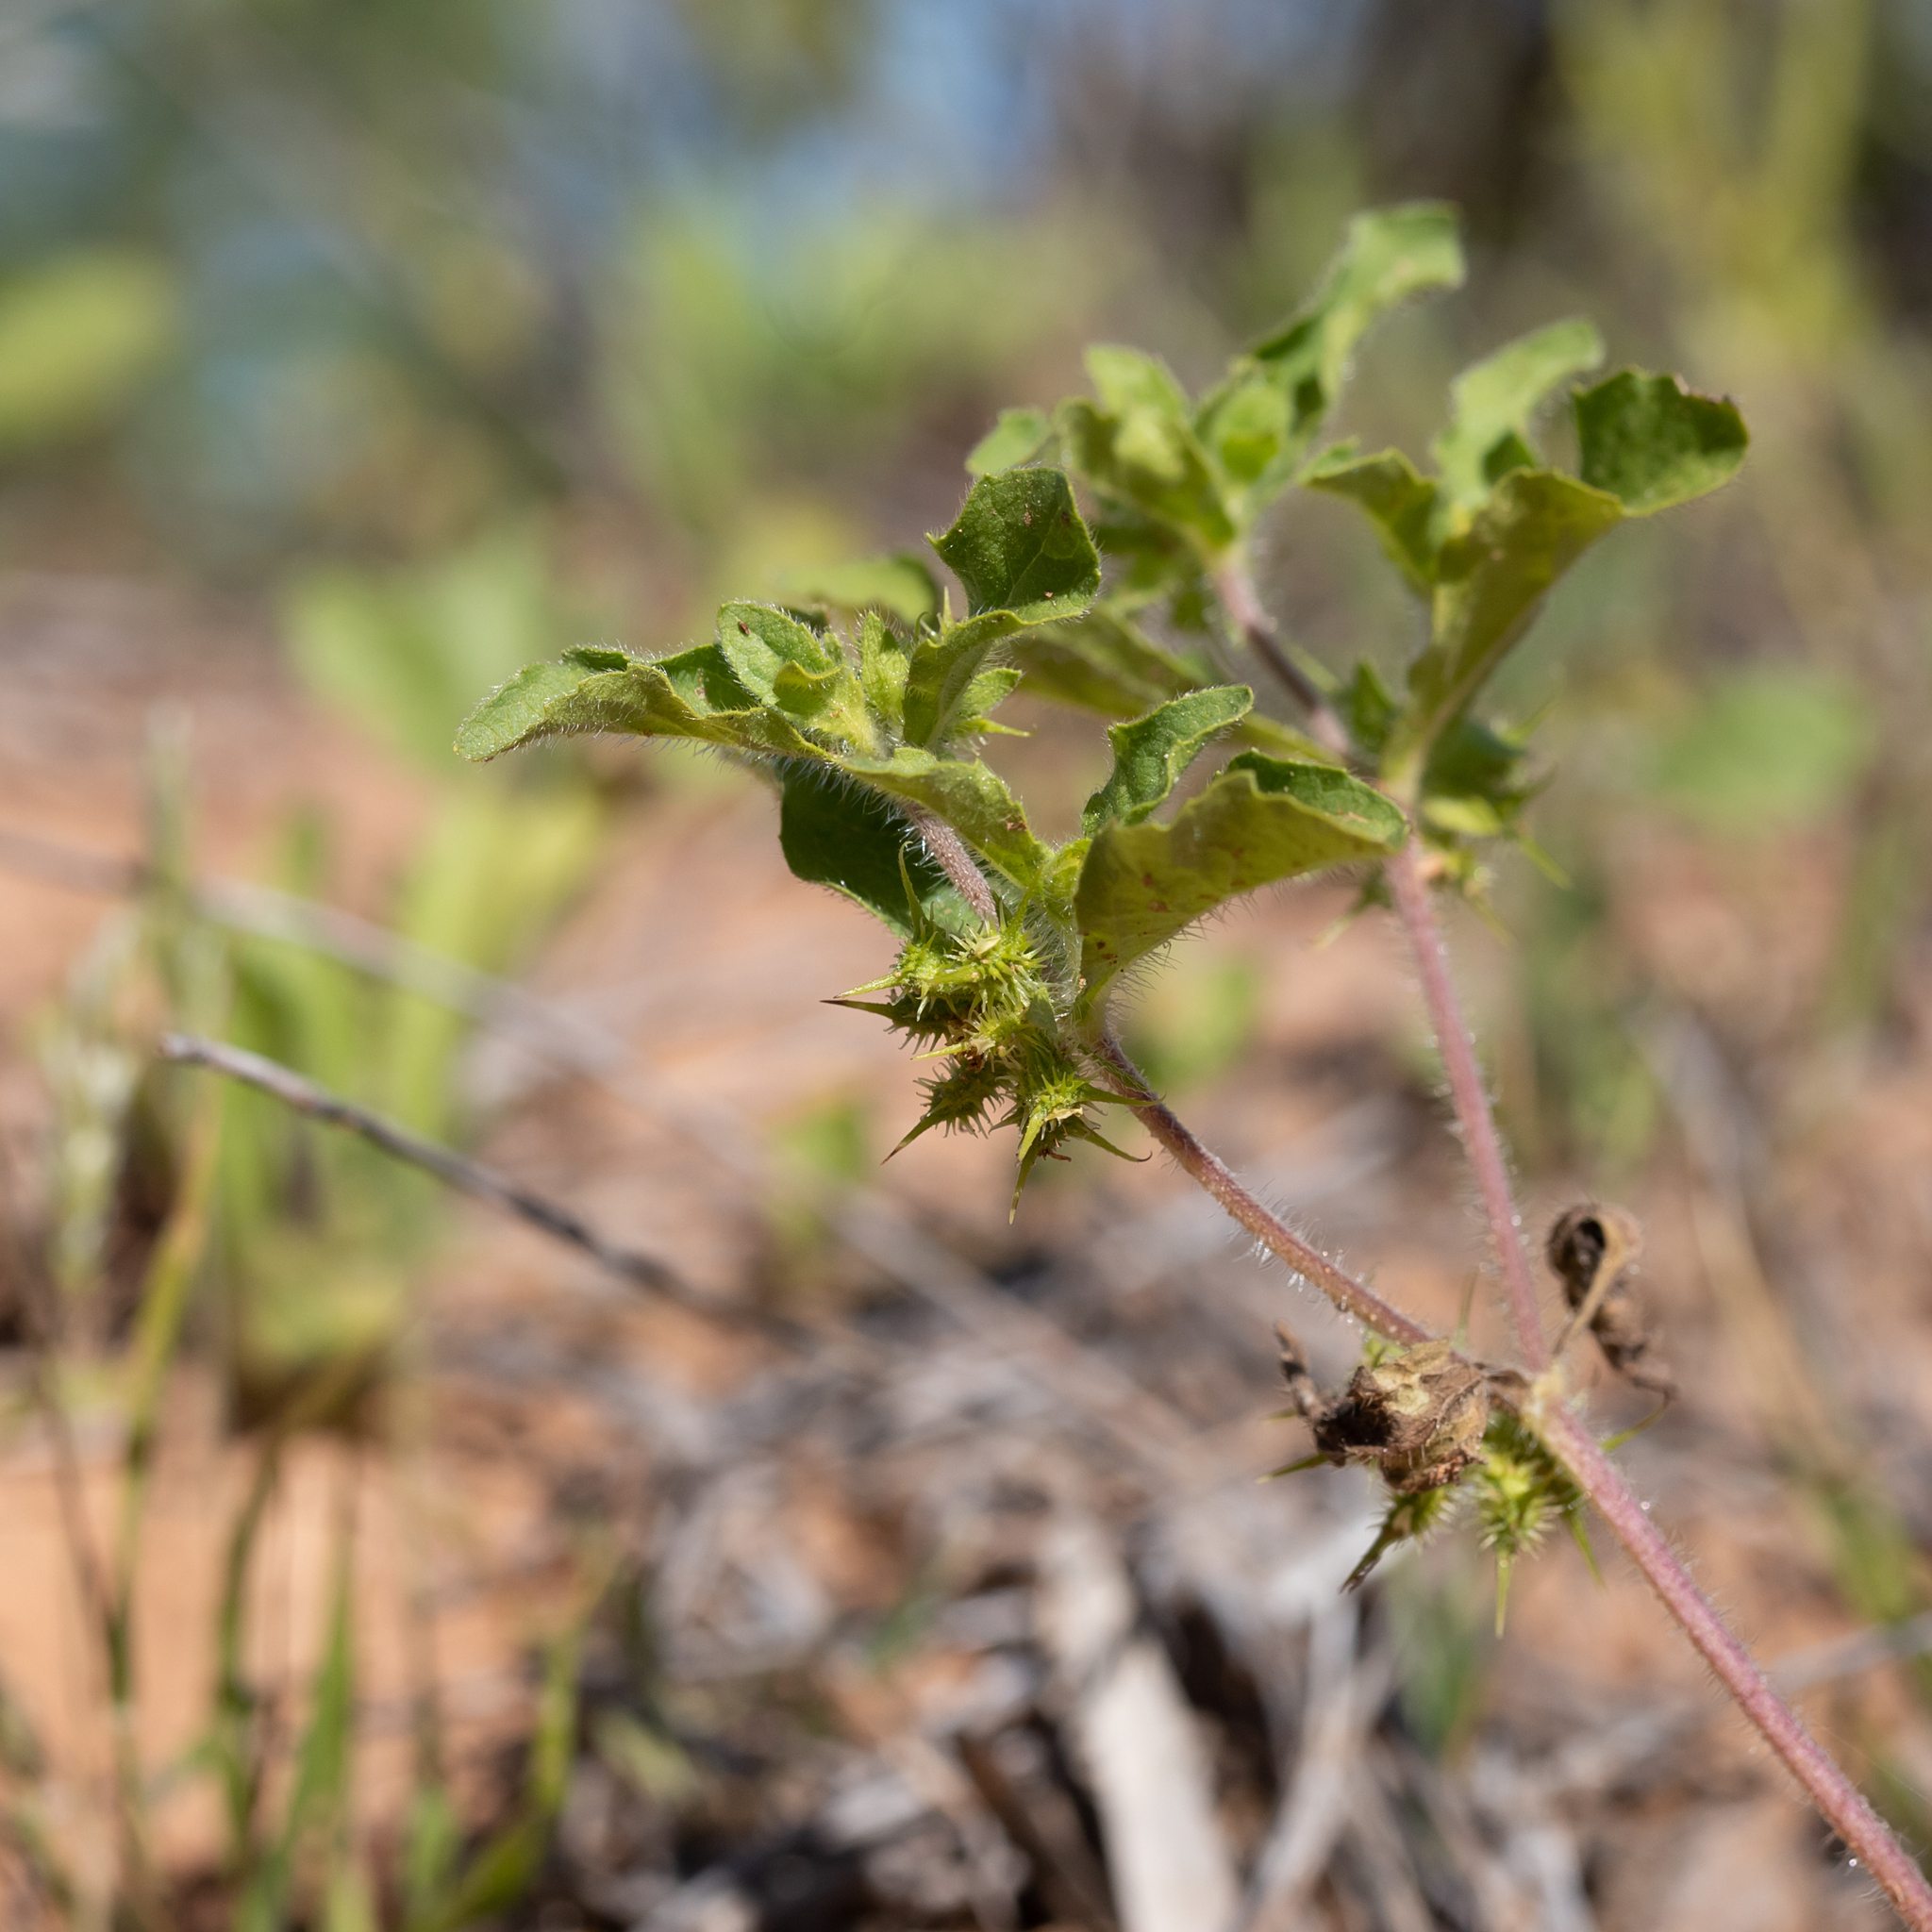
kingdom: Plantae
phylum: Tracheophyta
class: Magnoliopsida
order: Asterales
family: Asteraceae
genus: Acanthospermum
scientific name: Acanthospermum hispidum
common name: Hispid starbur
